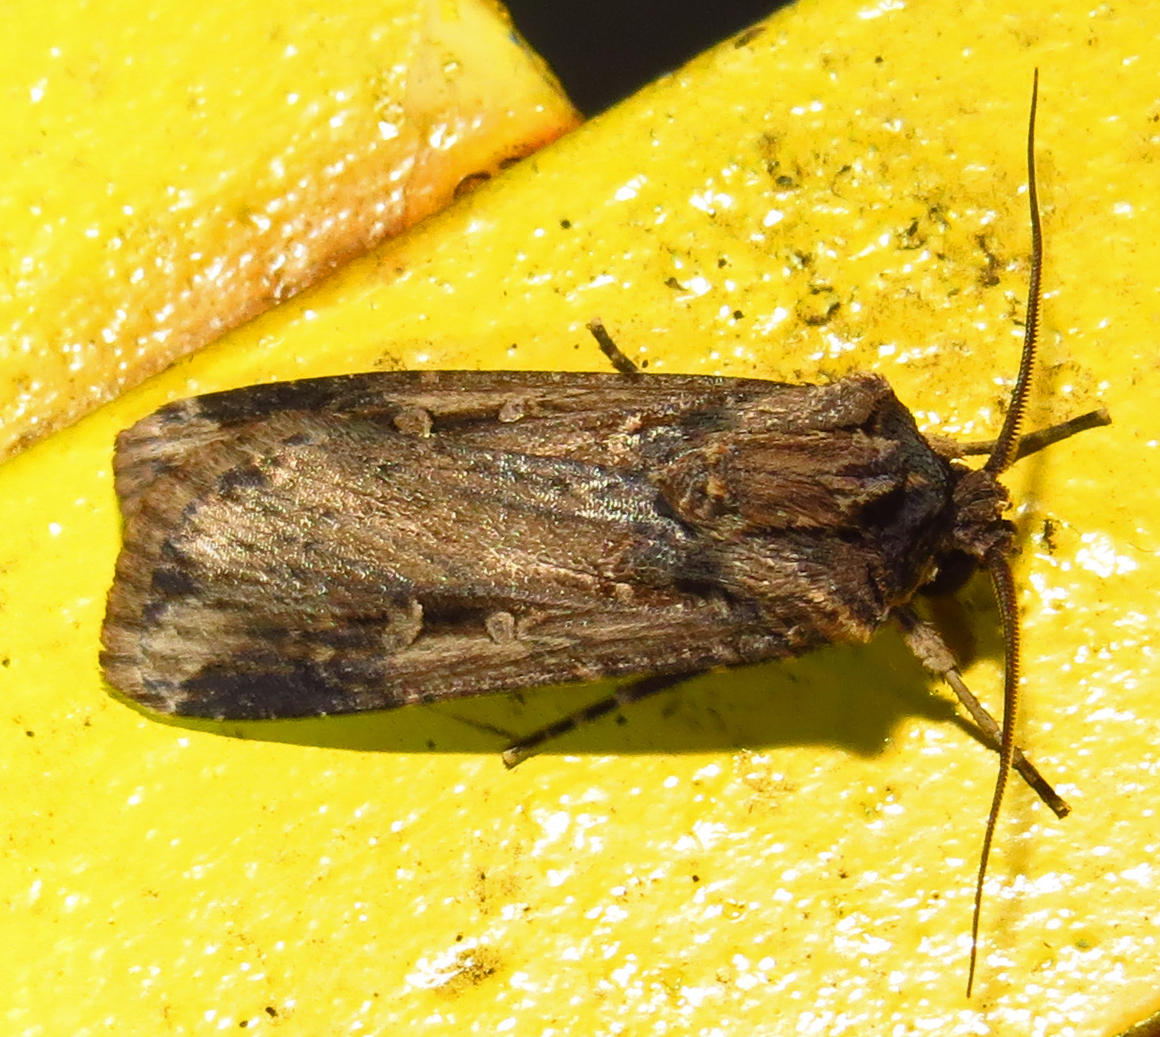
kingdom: Animalia
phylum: Arthropoda
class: Insecta
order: Lepidoptera
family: Noctuidae
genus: Feltia
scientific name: Feltia subterranea
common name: Granulate cutworm
